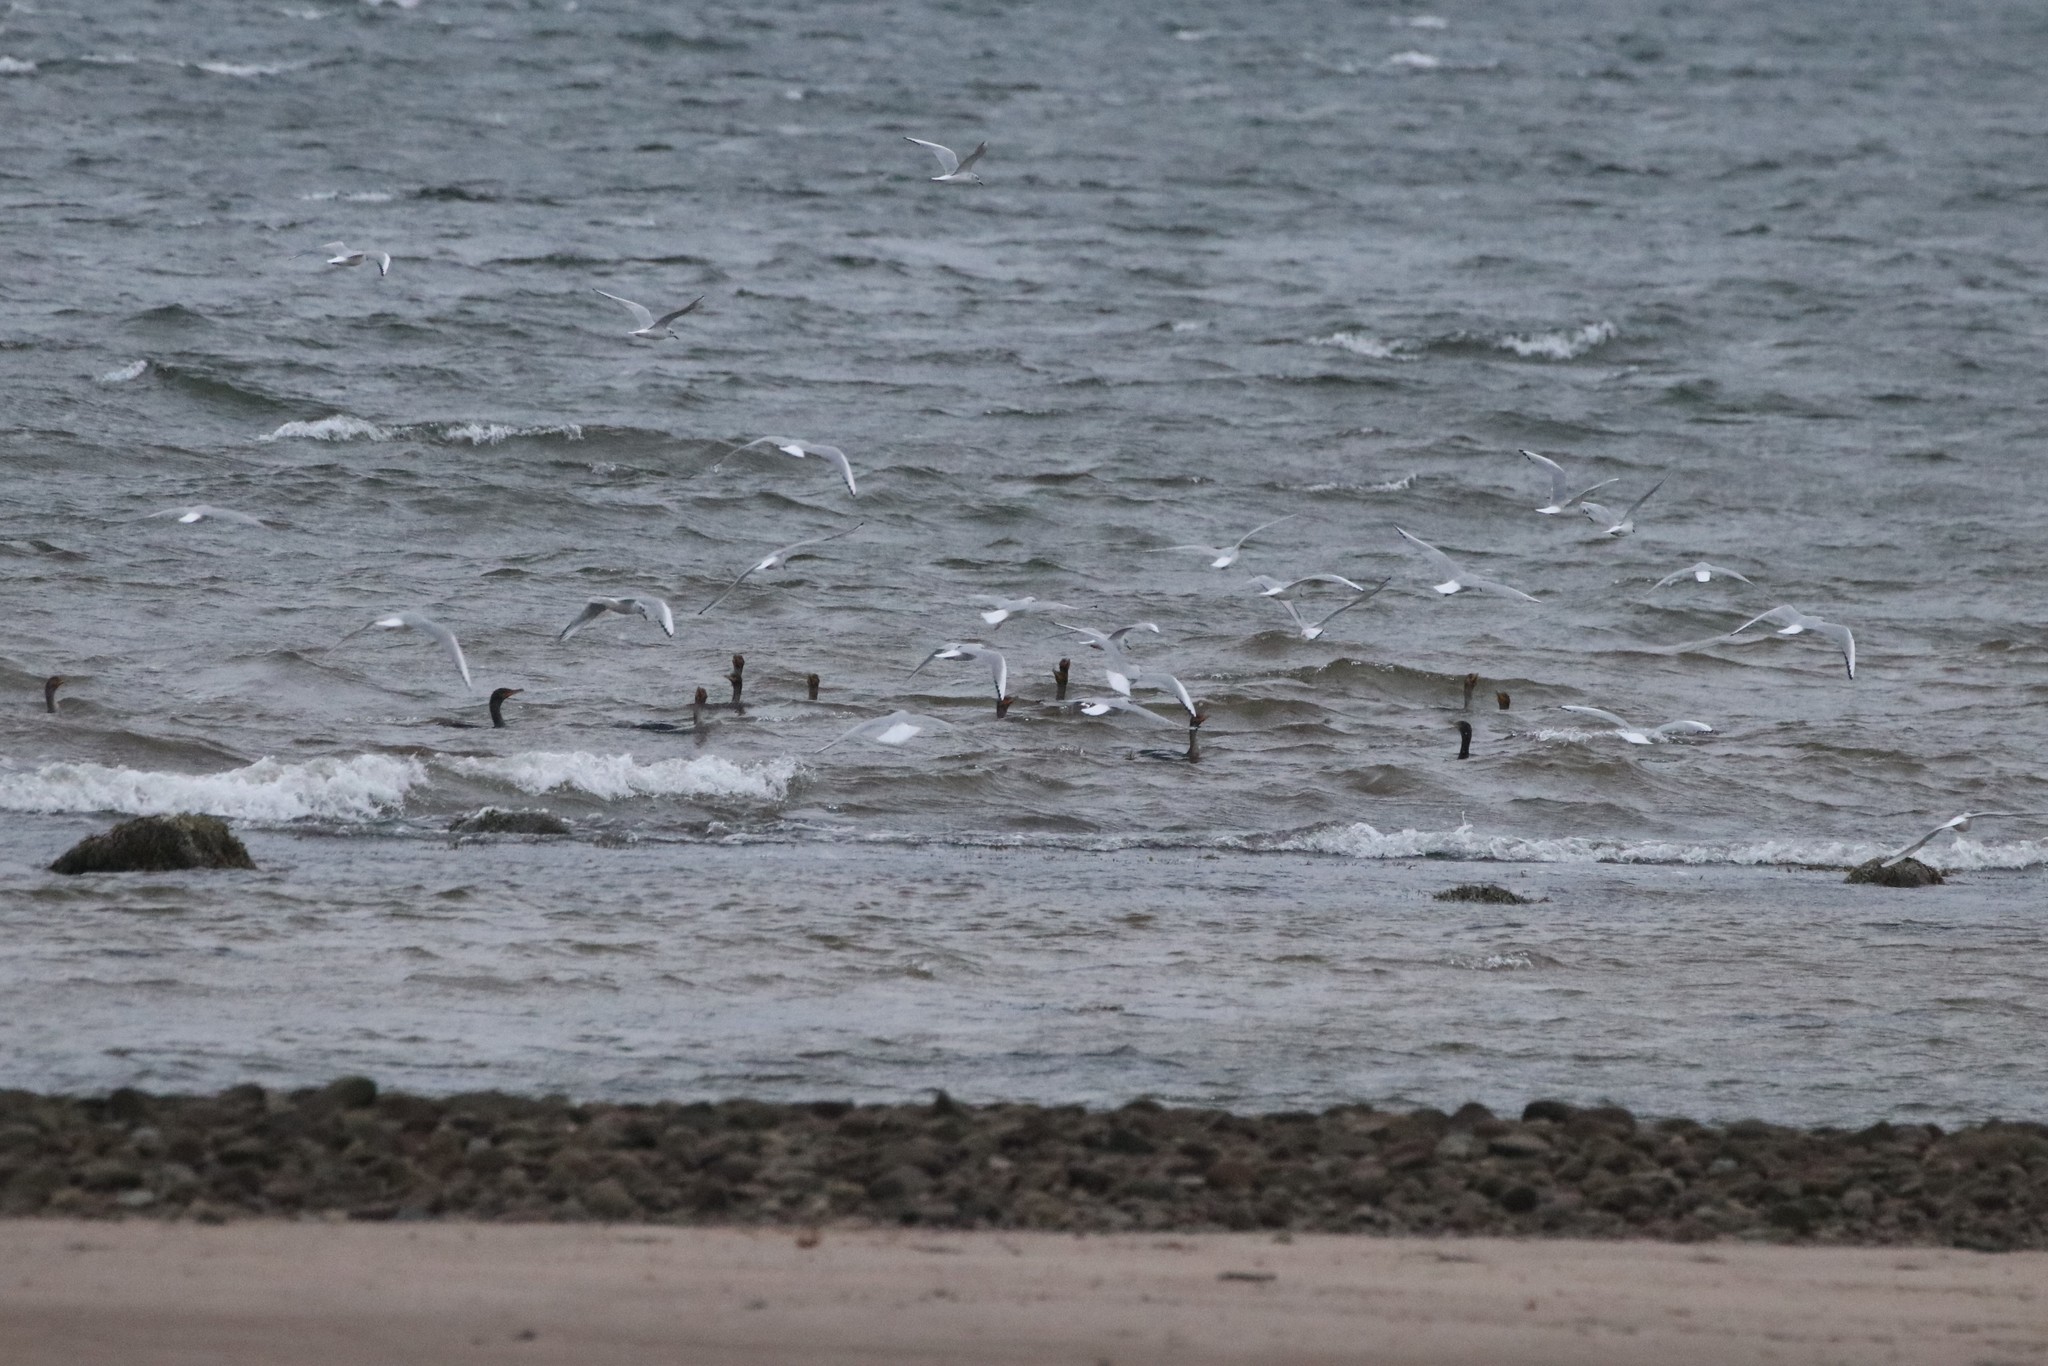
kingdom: Animalia
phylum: Chordata
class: Aves
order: Charadriiformes
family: Laridae
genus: Chroicocephalus
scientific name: Chroicocephalus philadelphia
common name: Bonaparte's gull
